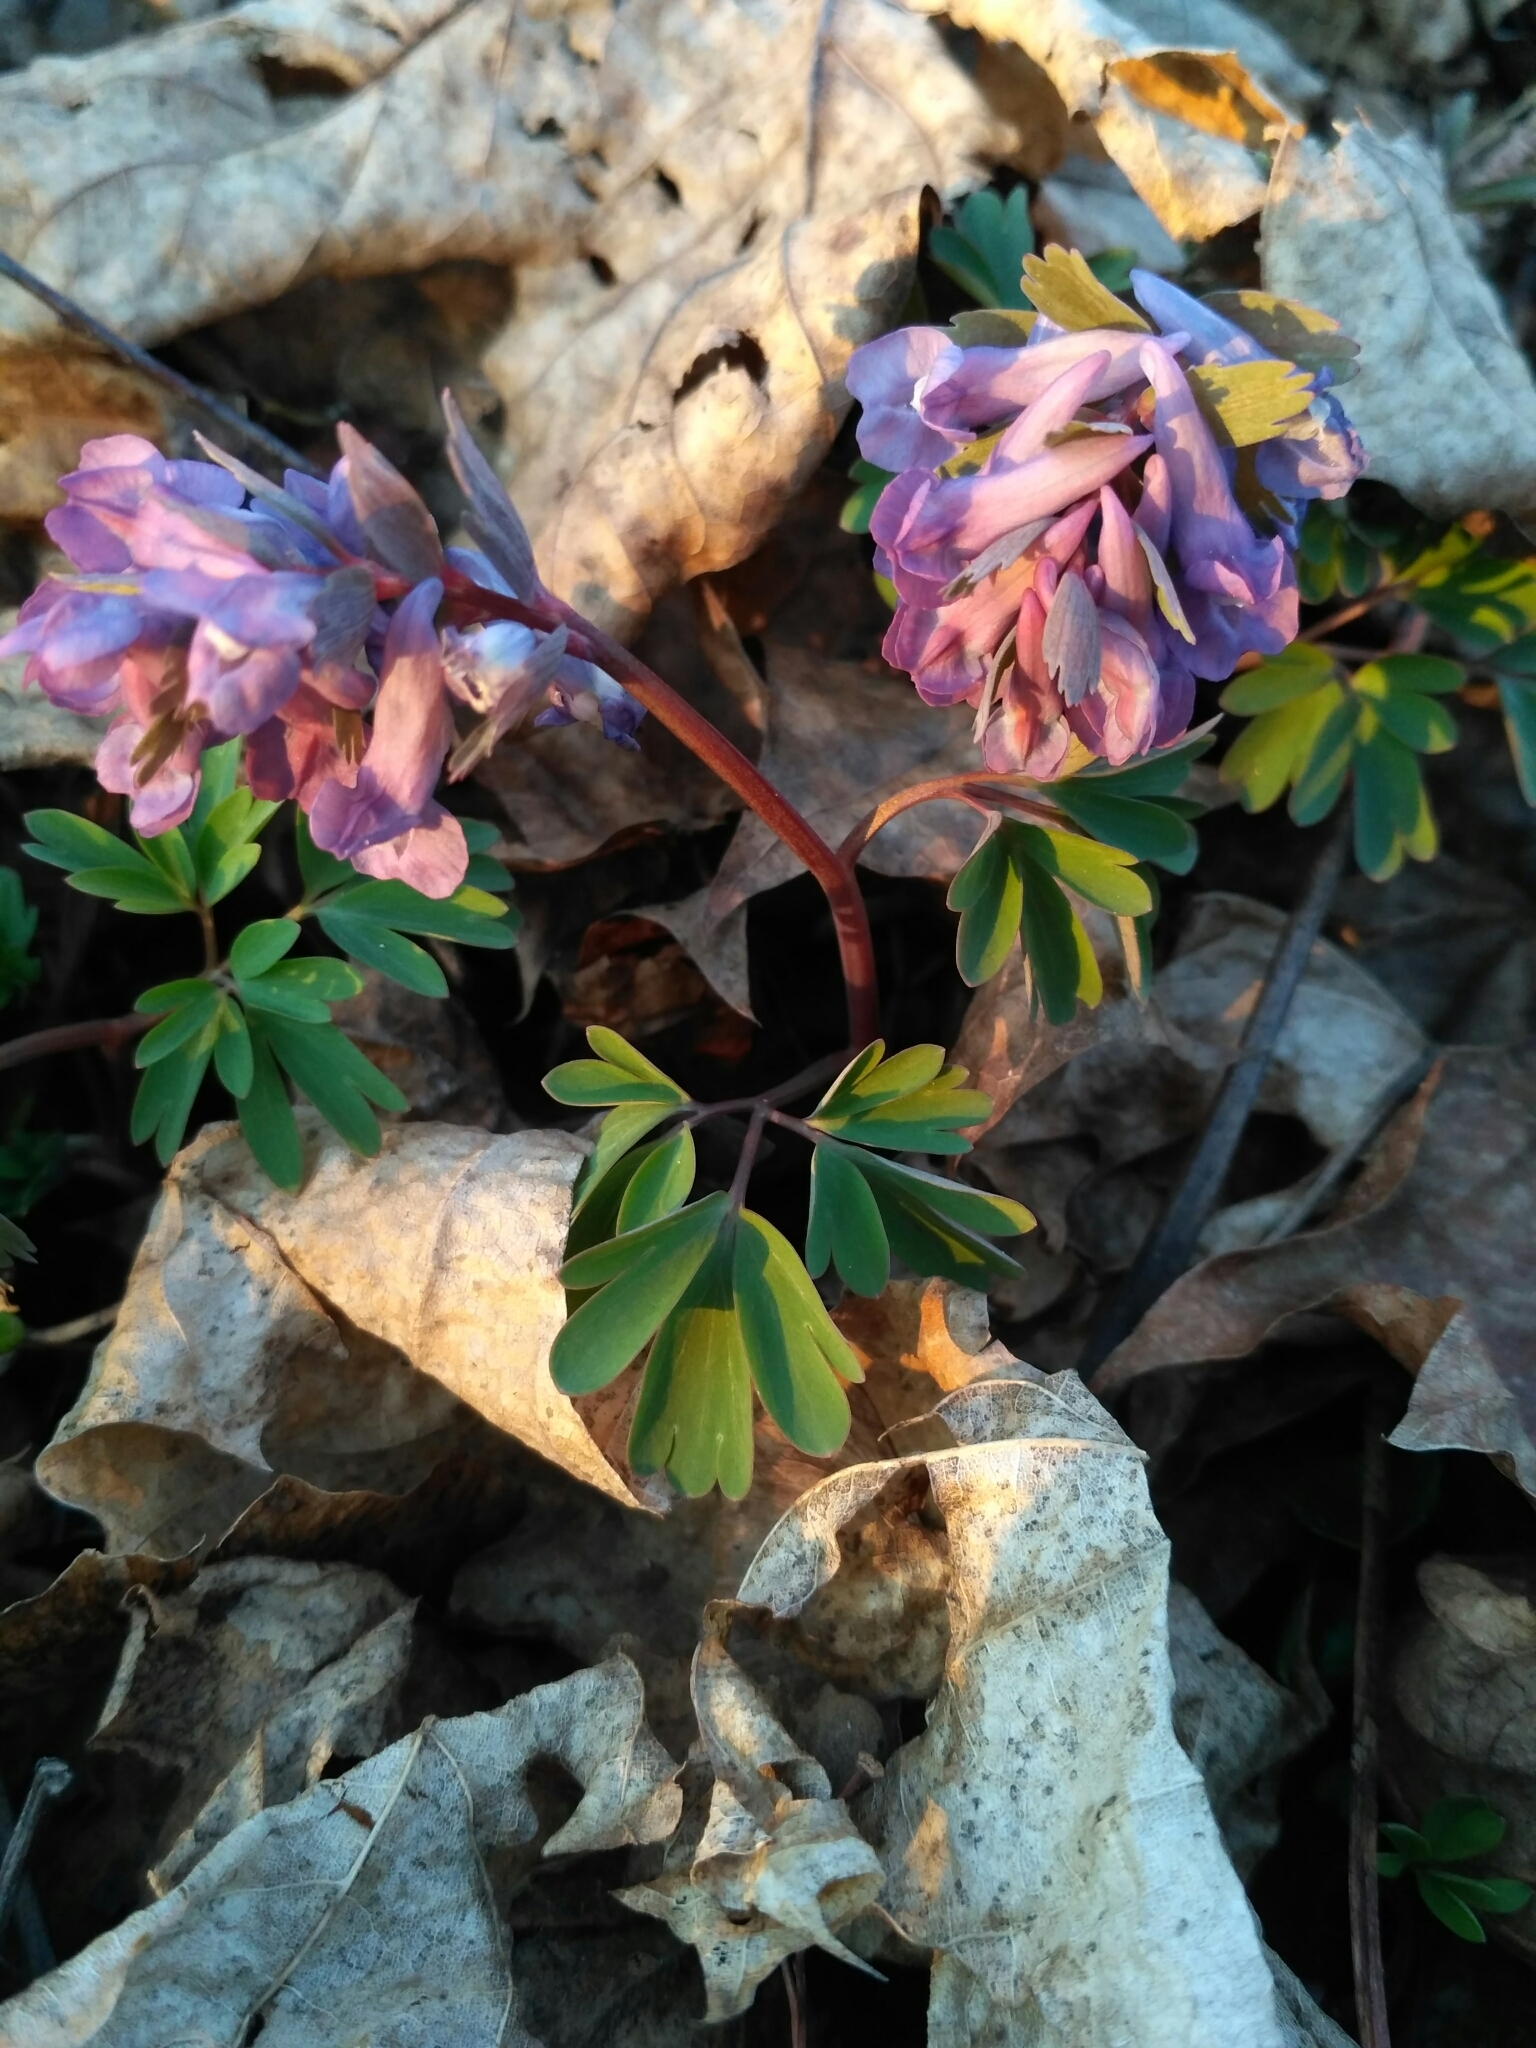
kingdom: Plantae
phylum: Tracheophyta
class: Magnoliopsida
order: Ranunculales
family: Papaveraceae
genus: Corydalis
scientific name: Corydalis solida
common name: Bird-in-a-bush
